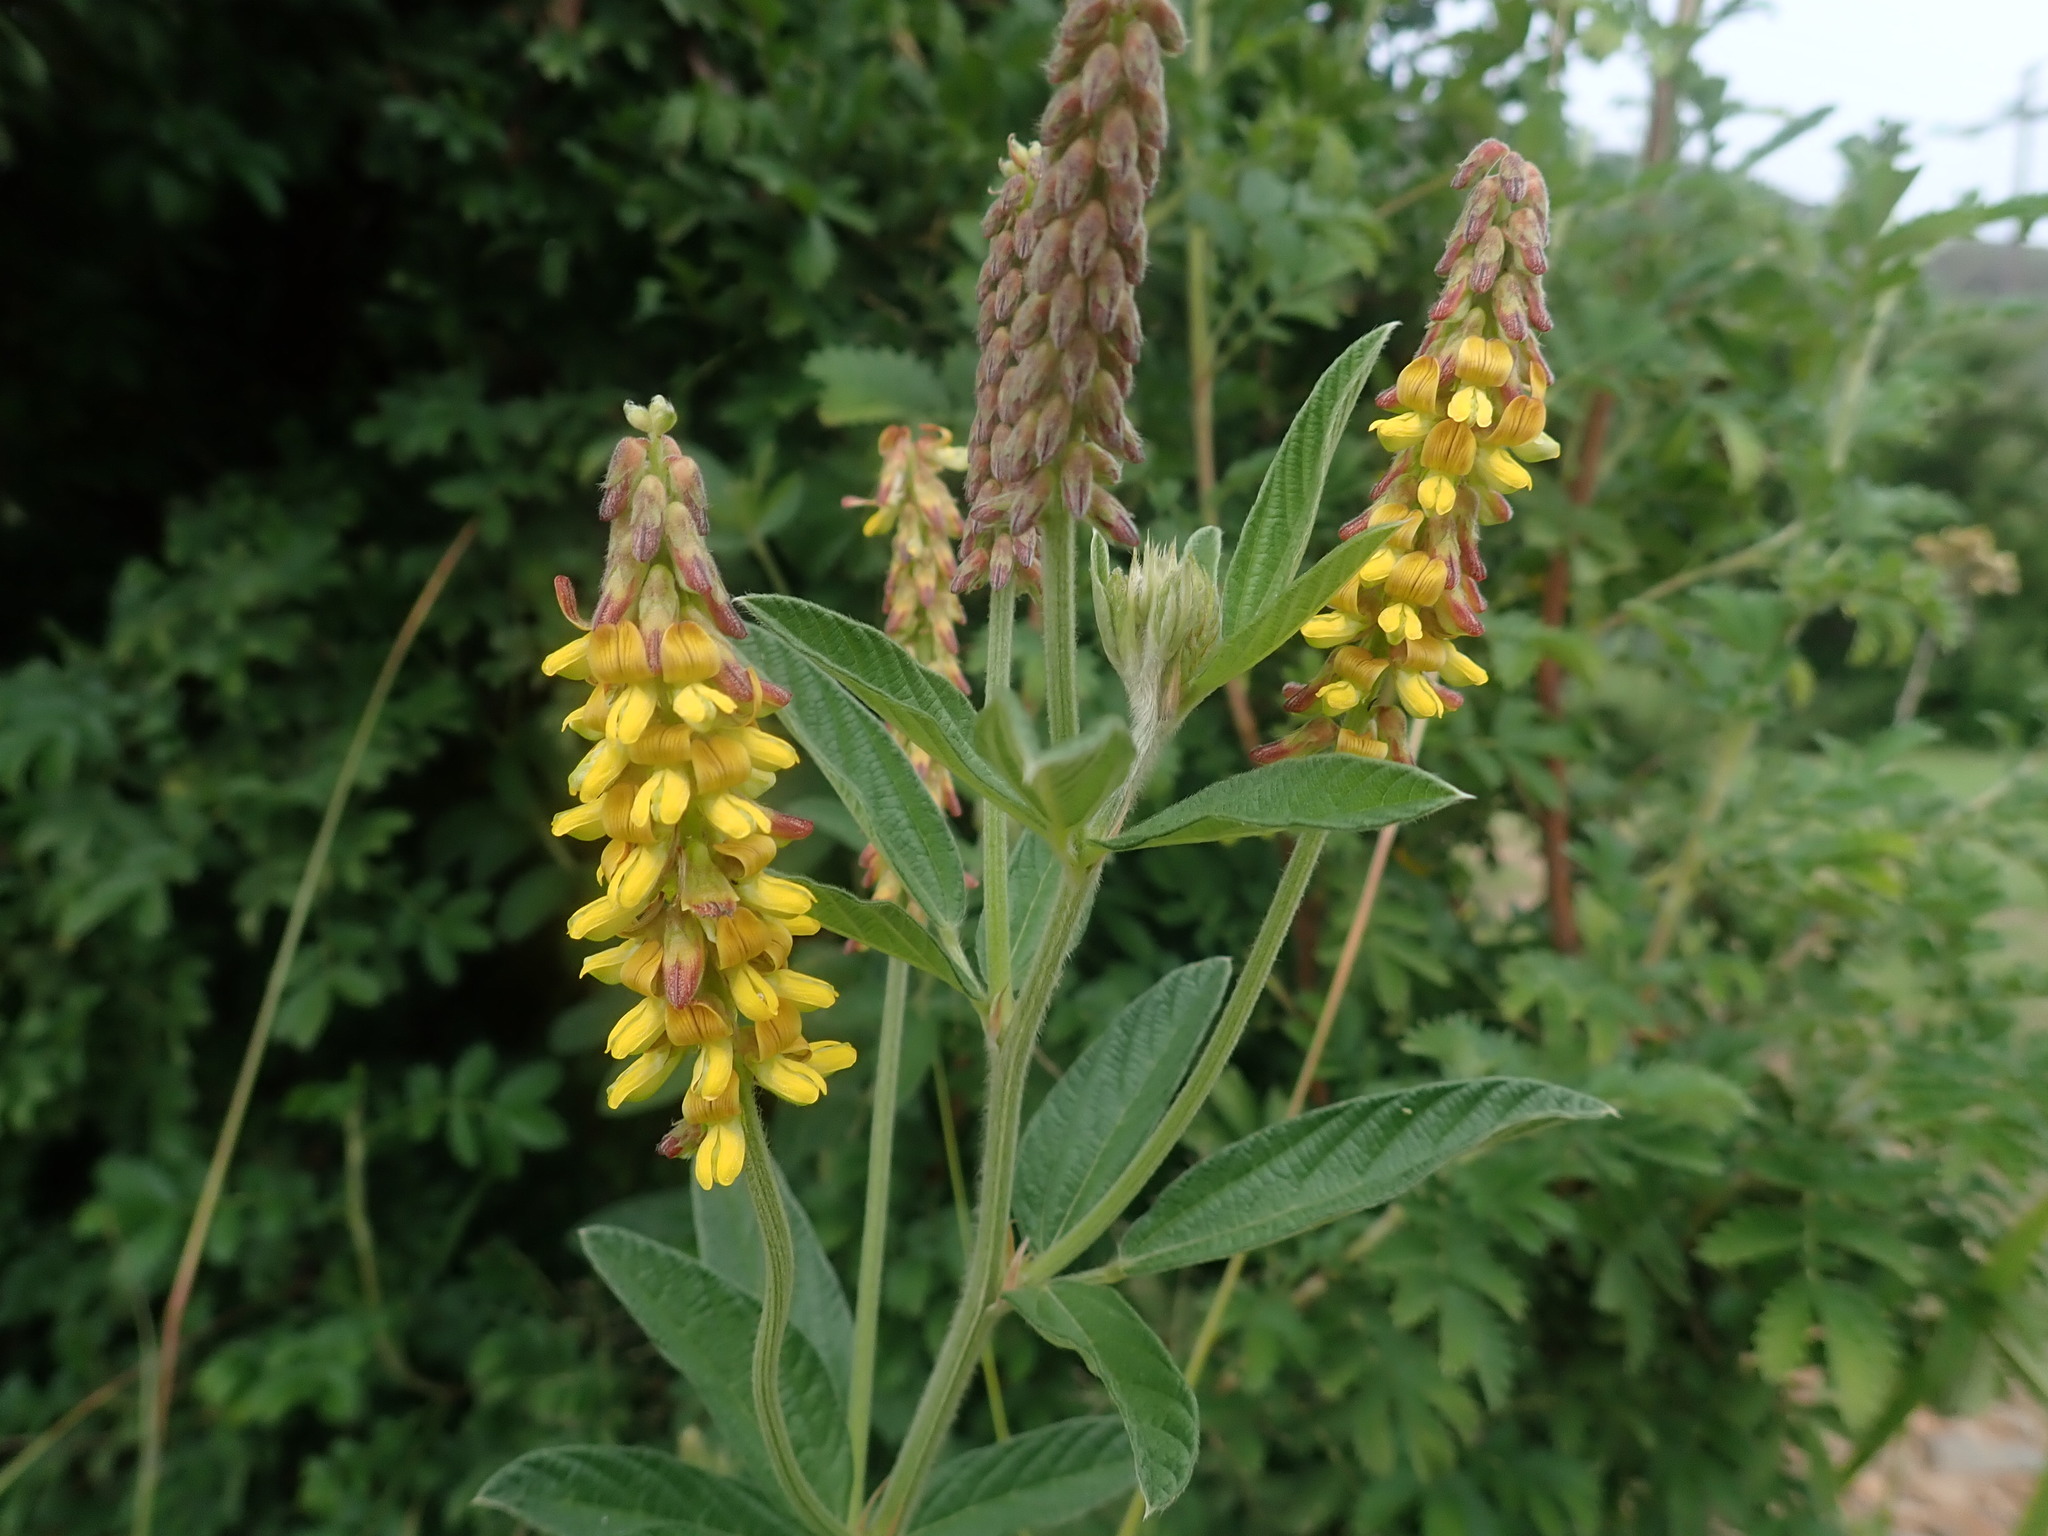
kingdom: Plantae
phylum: Tracheophyta
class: Magnoliopsida
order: Fabales
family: Fabaceae
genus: Eriosema
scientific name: Eriosema nutans
